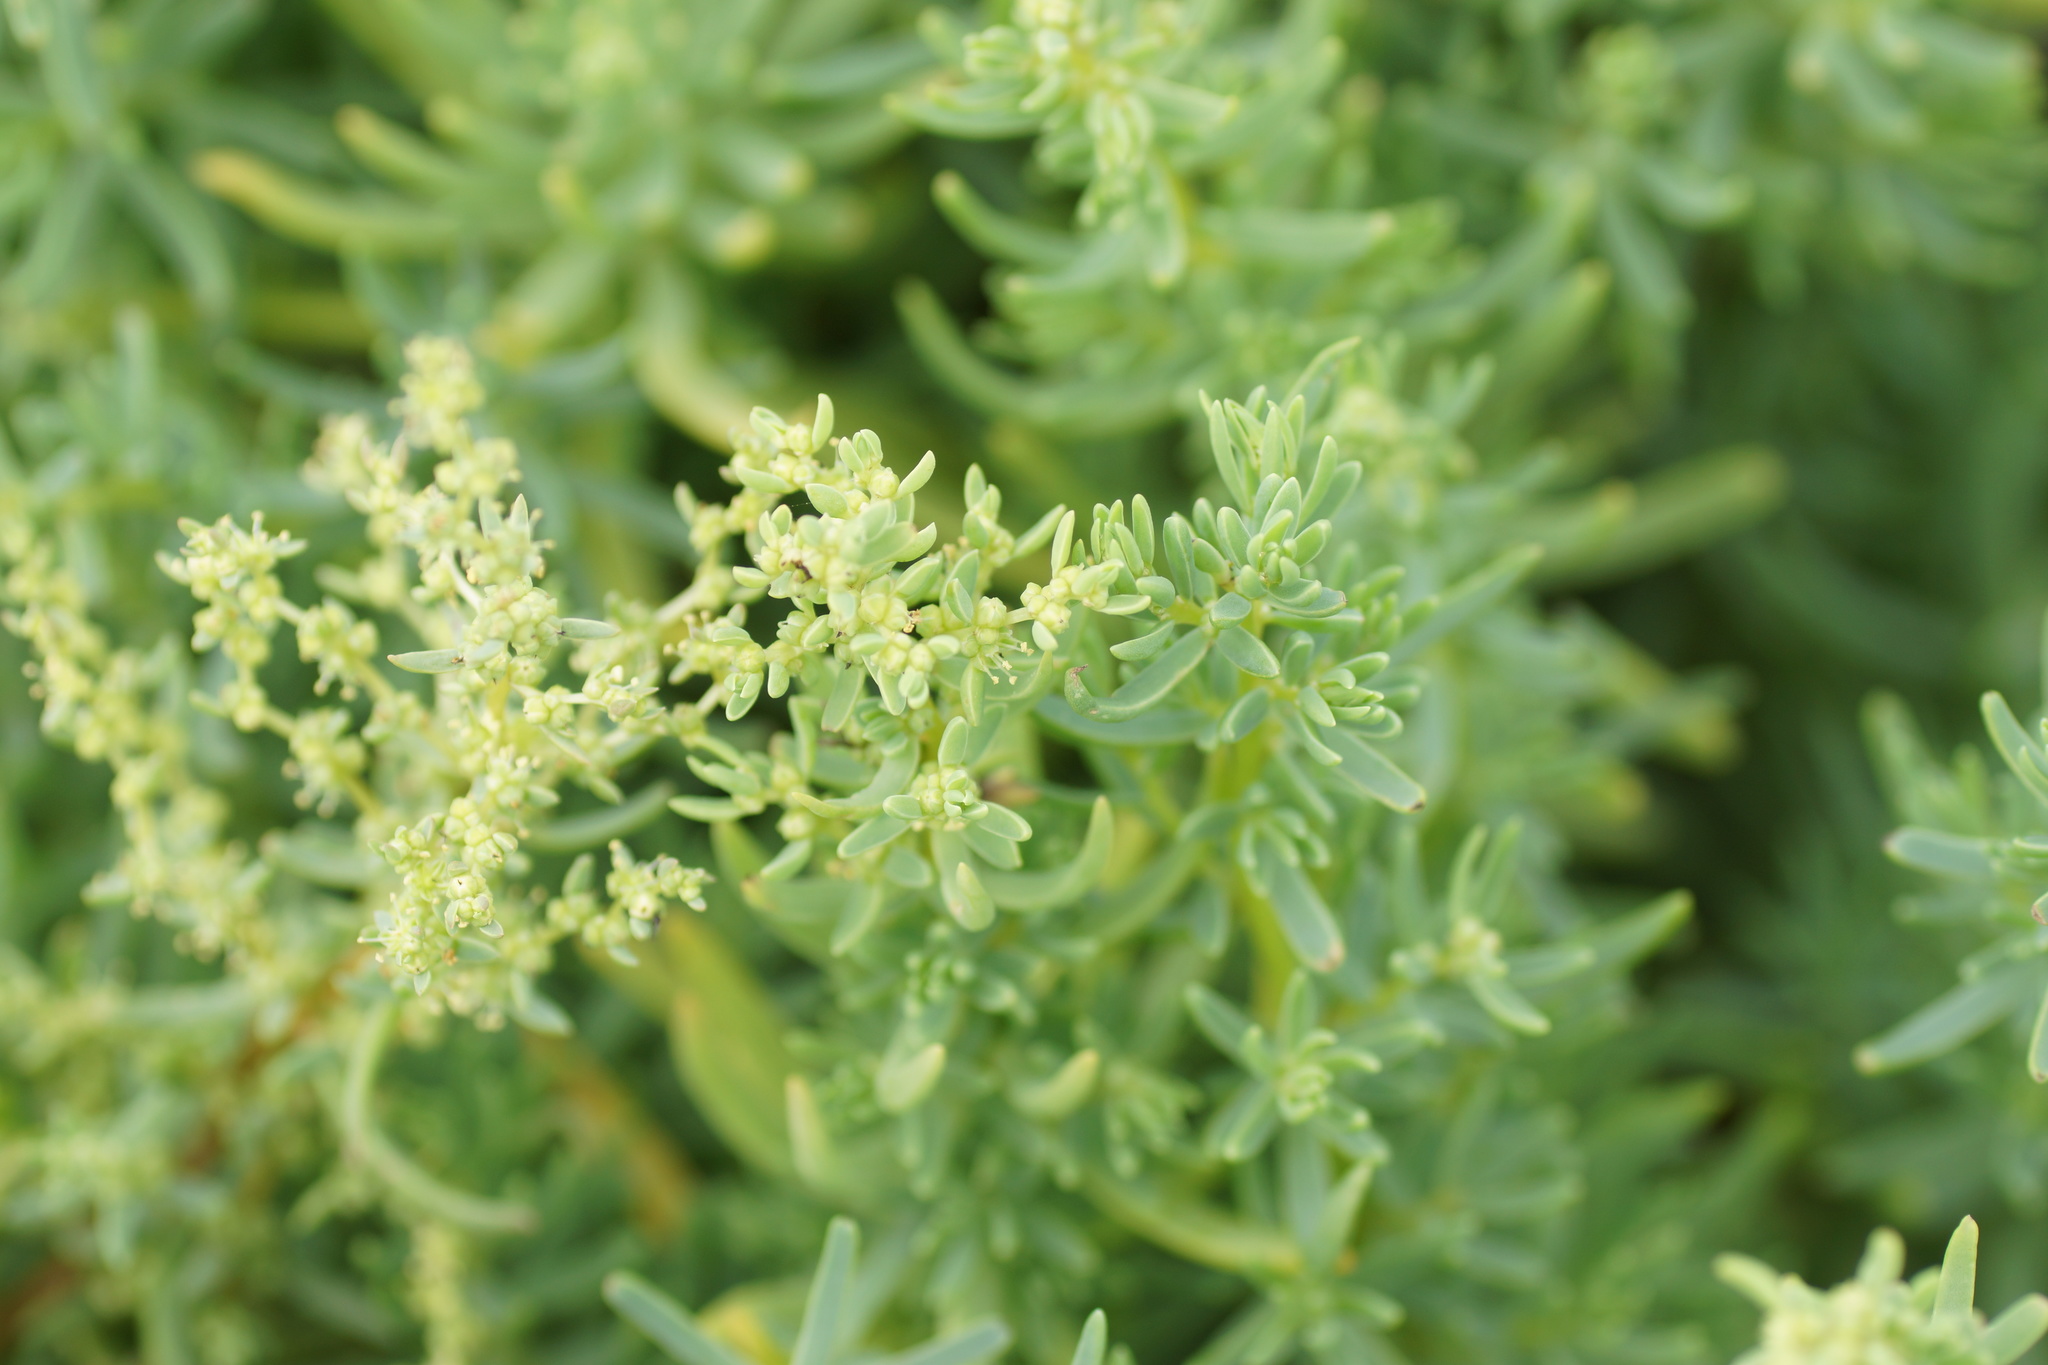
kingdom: Plantae
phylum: Tracheophyta
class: Magnoliopsida
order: Caryophyllales
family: Amaranthaceae
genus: Suaeda
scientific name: Suaeda australis
